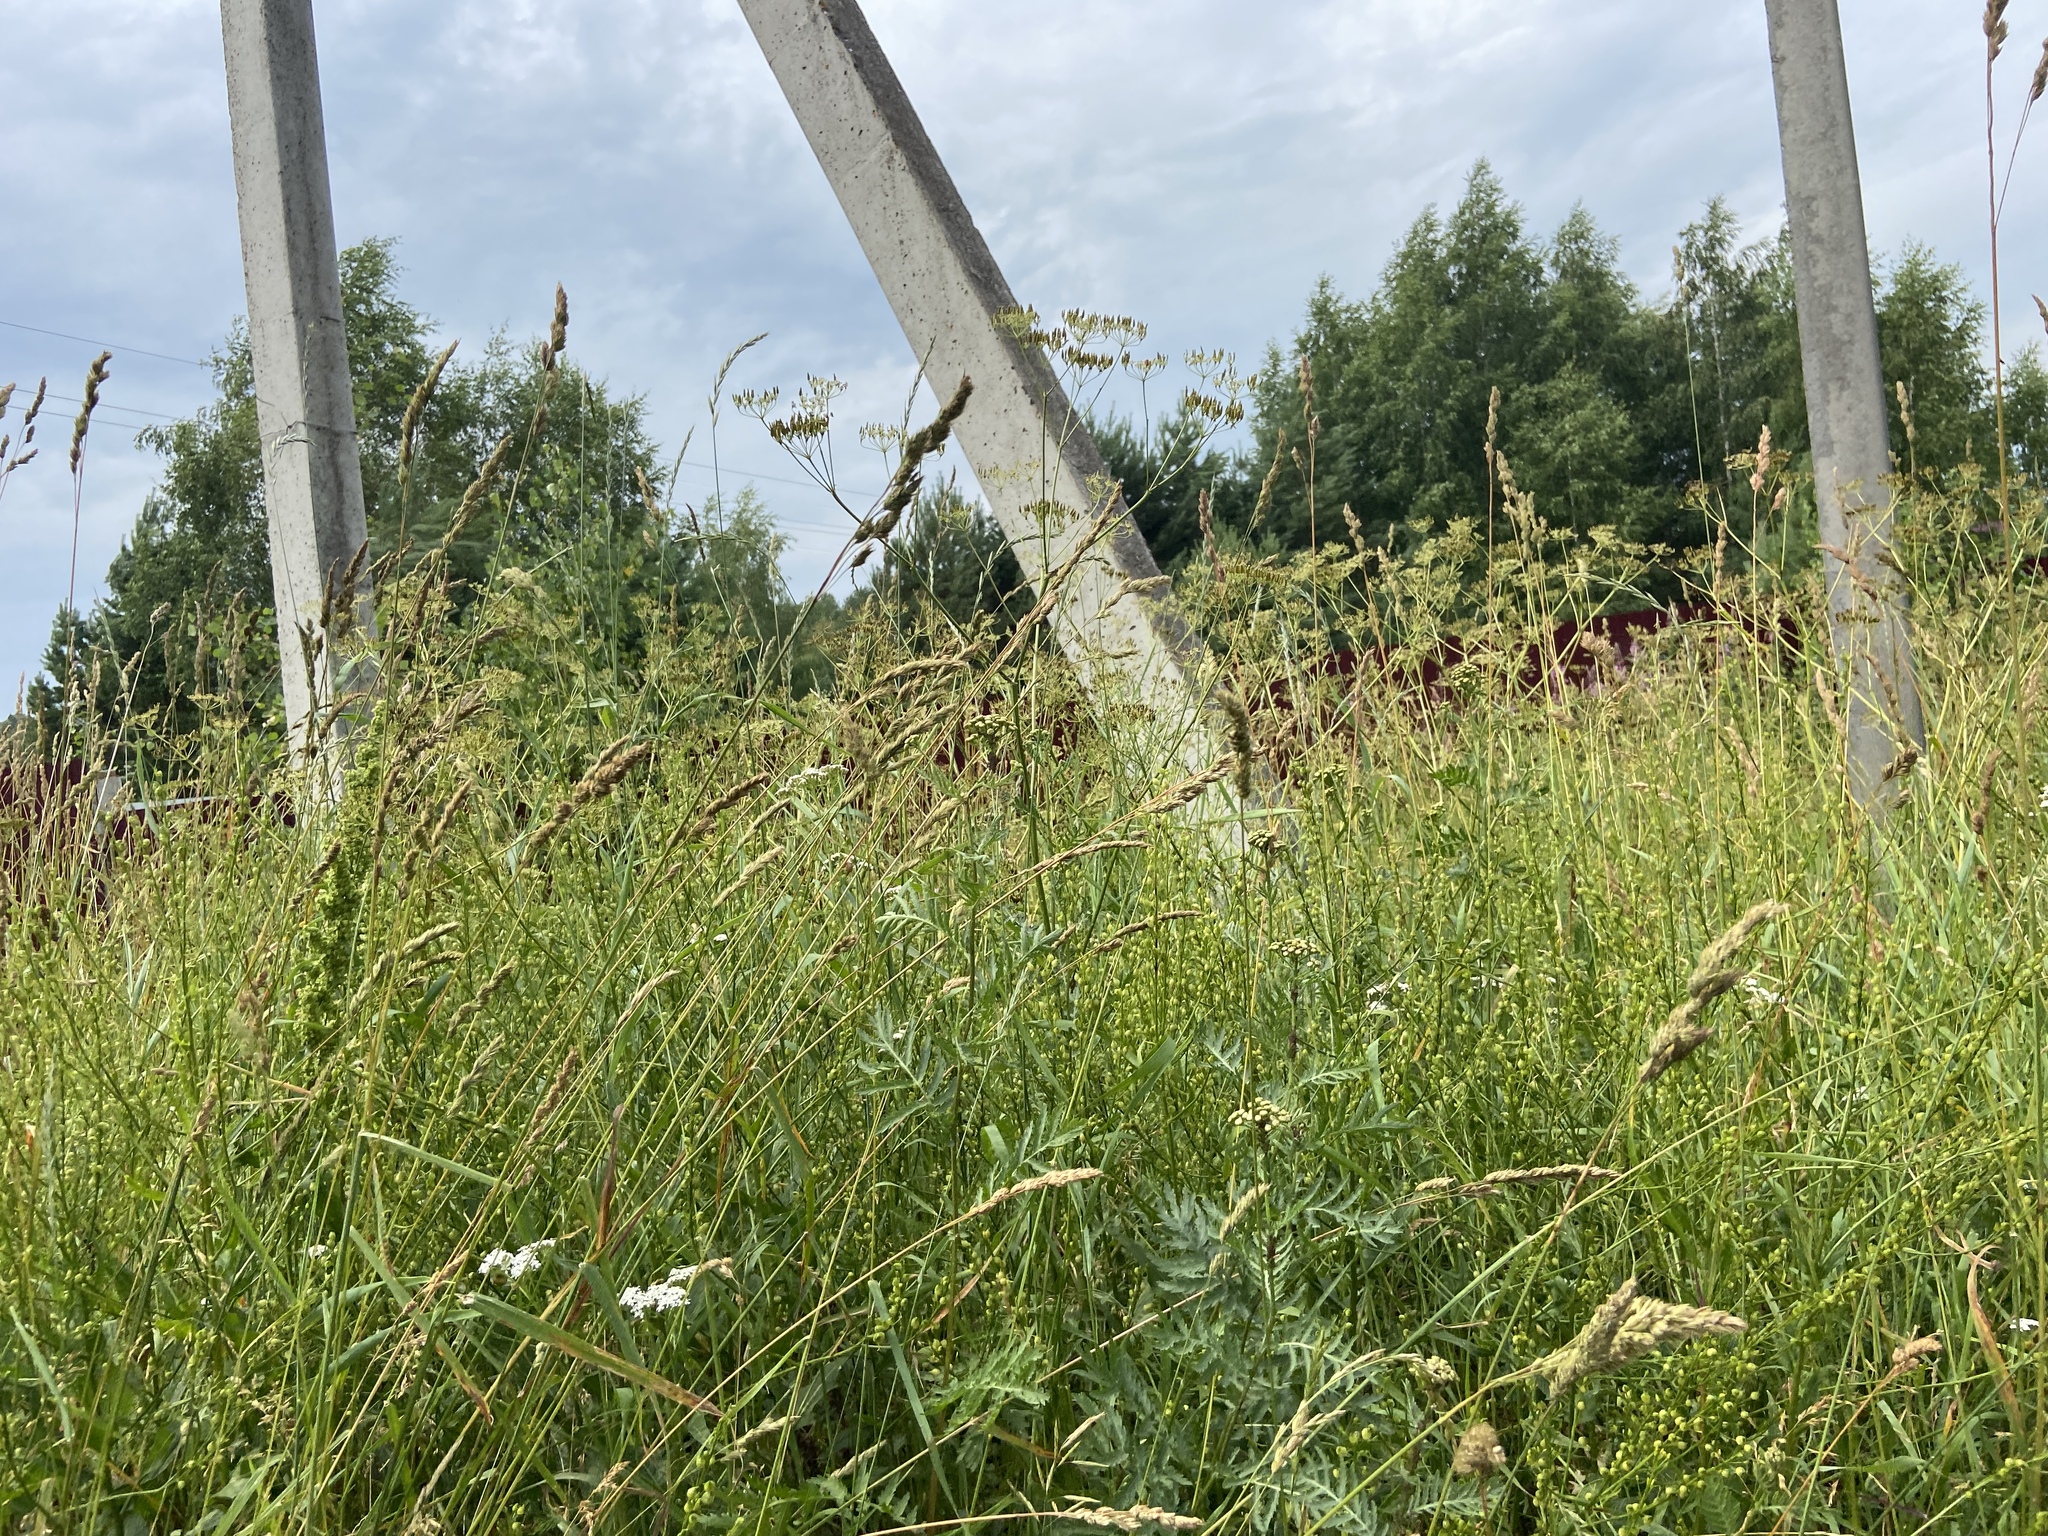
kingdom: Plantae
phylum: Tracheophyta
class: Liliopsida
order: Poales
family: Poaceae
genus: Dactylis
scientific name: Dactylis glomerata
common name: Orchardgrass
